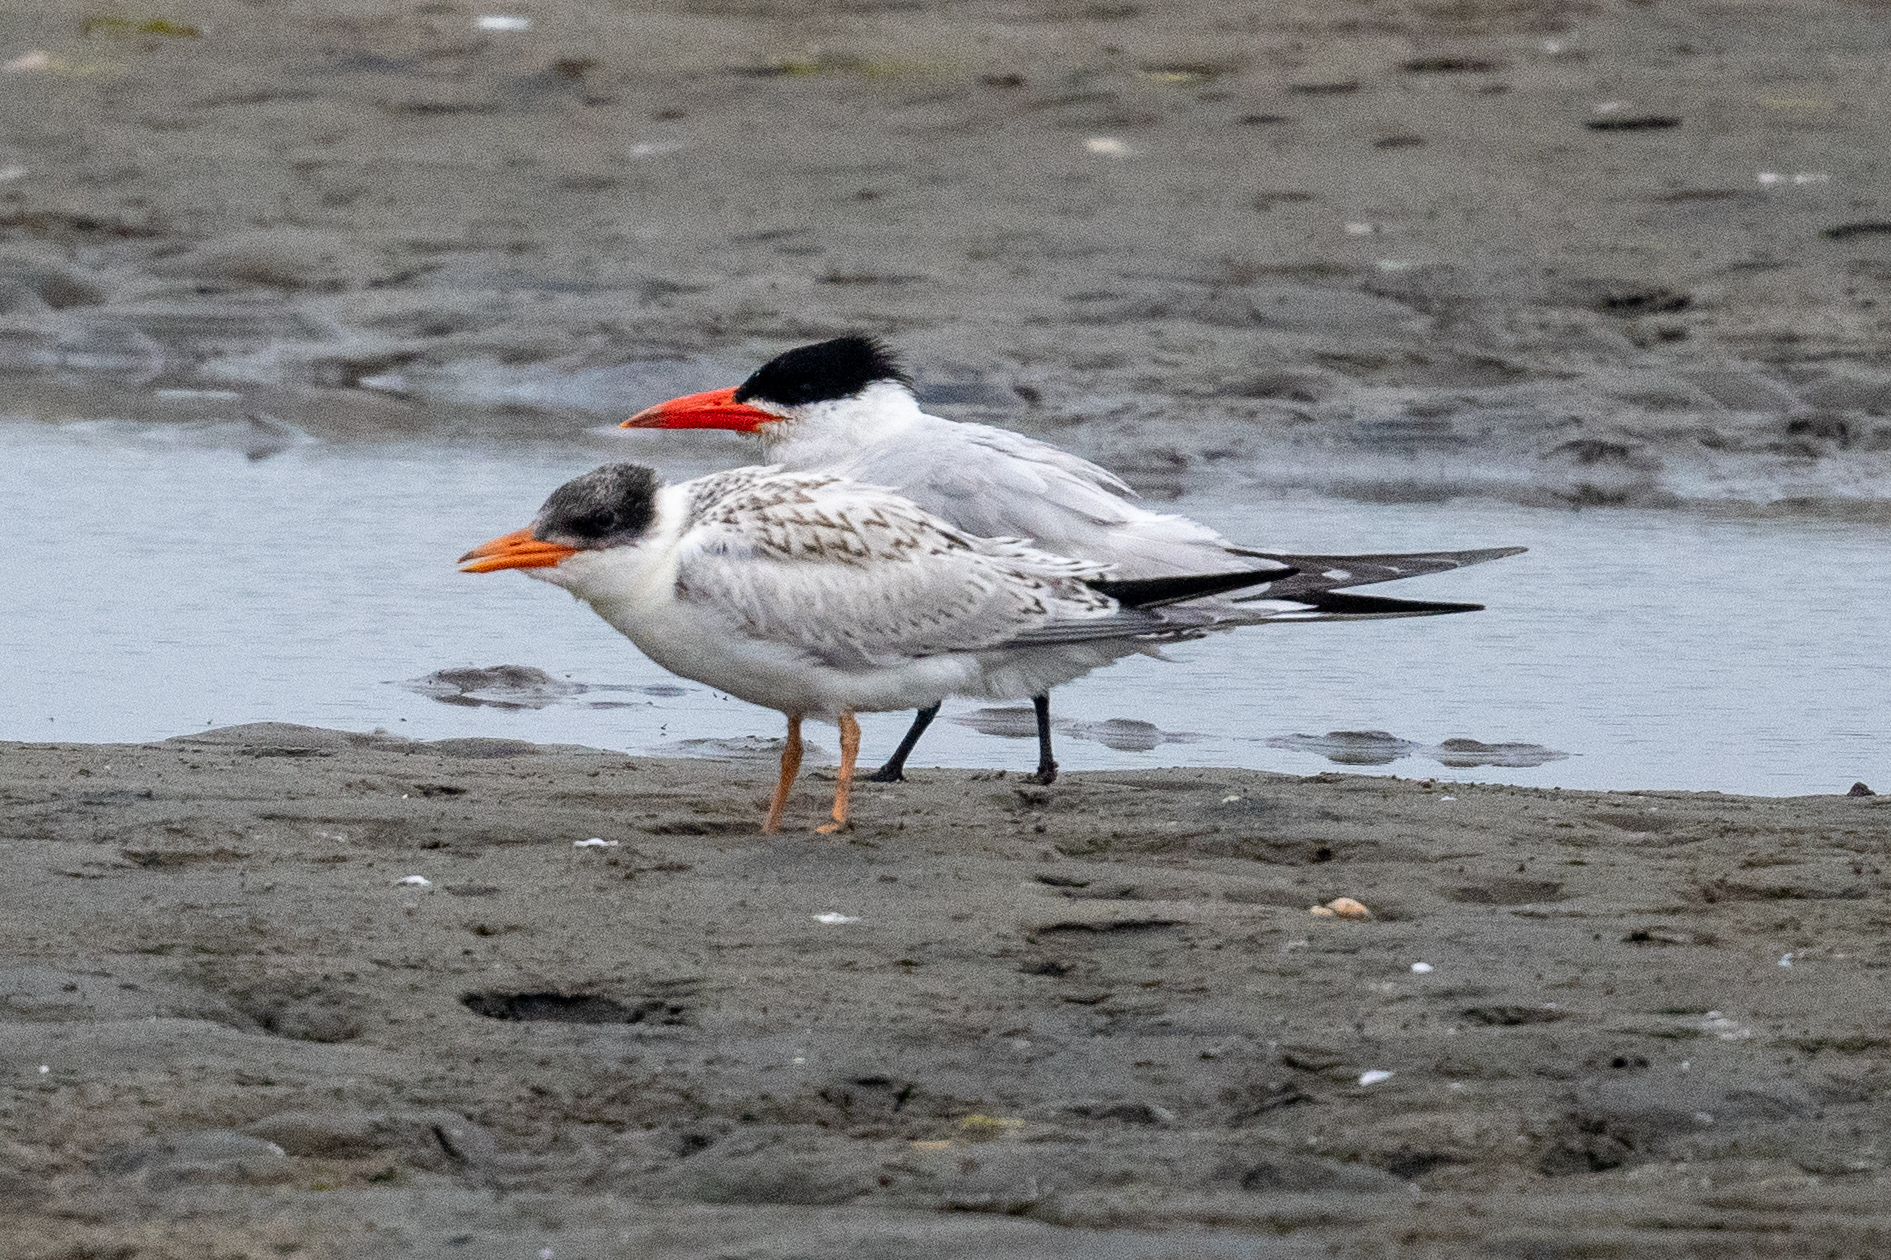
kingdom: Animalia
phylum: Chordata
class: Aves
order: Charadriiformes
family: Laridae
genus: Hydroprogne
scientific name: Hydroprogne caspia
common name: Caspian tern
